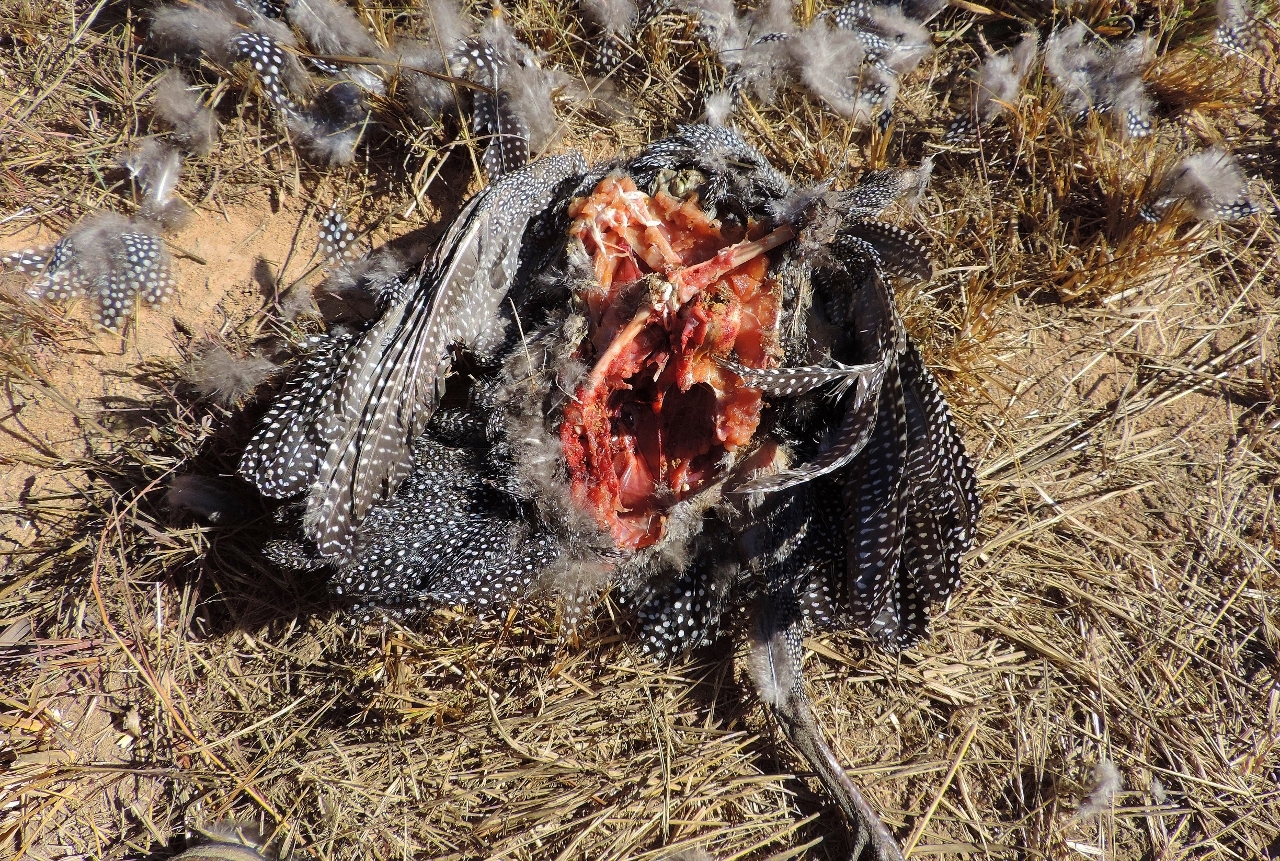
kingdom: Animalia
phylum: Chordata
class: Aves
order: Galliformes
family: Numididae
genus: Numida
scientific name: Numida meleagris
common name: Helmeted guineafowl
